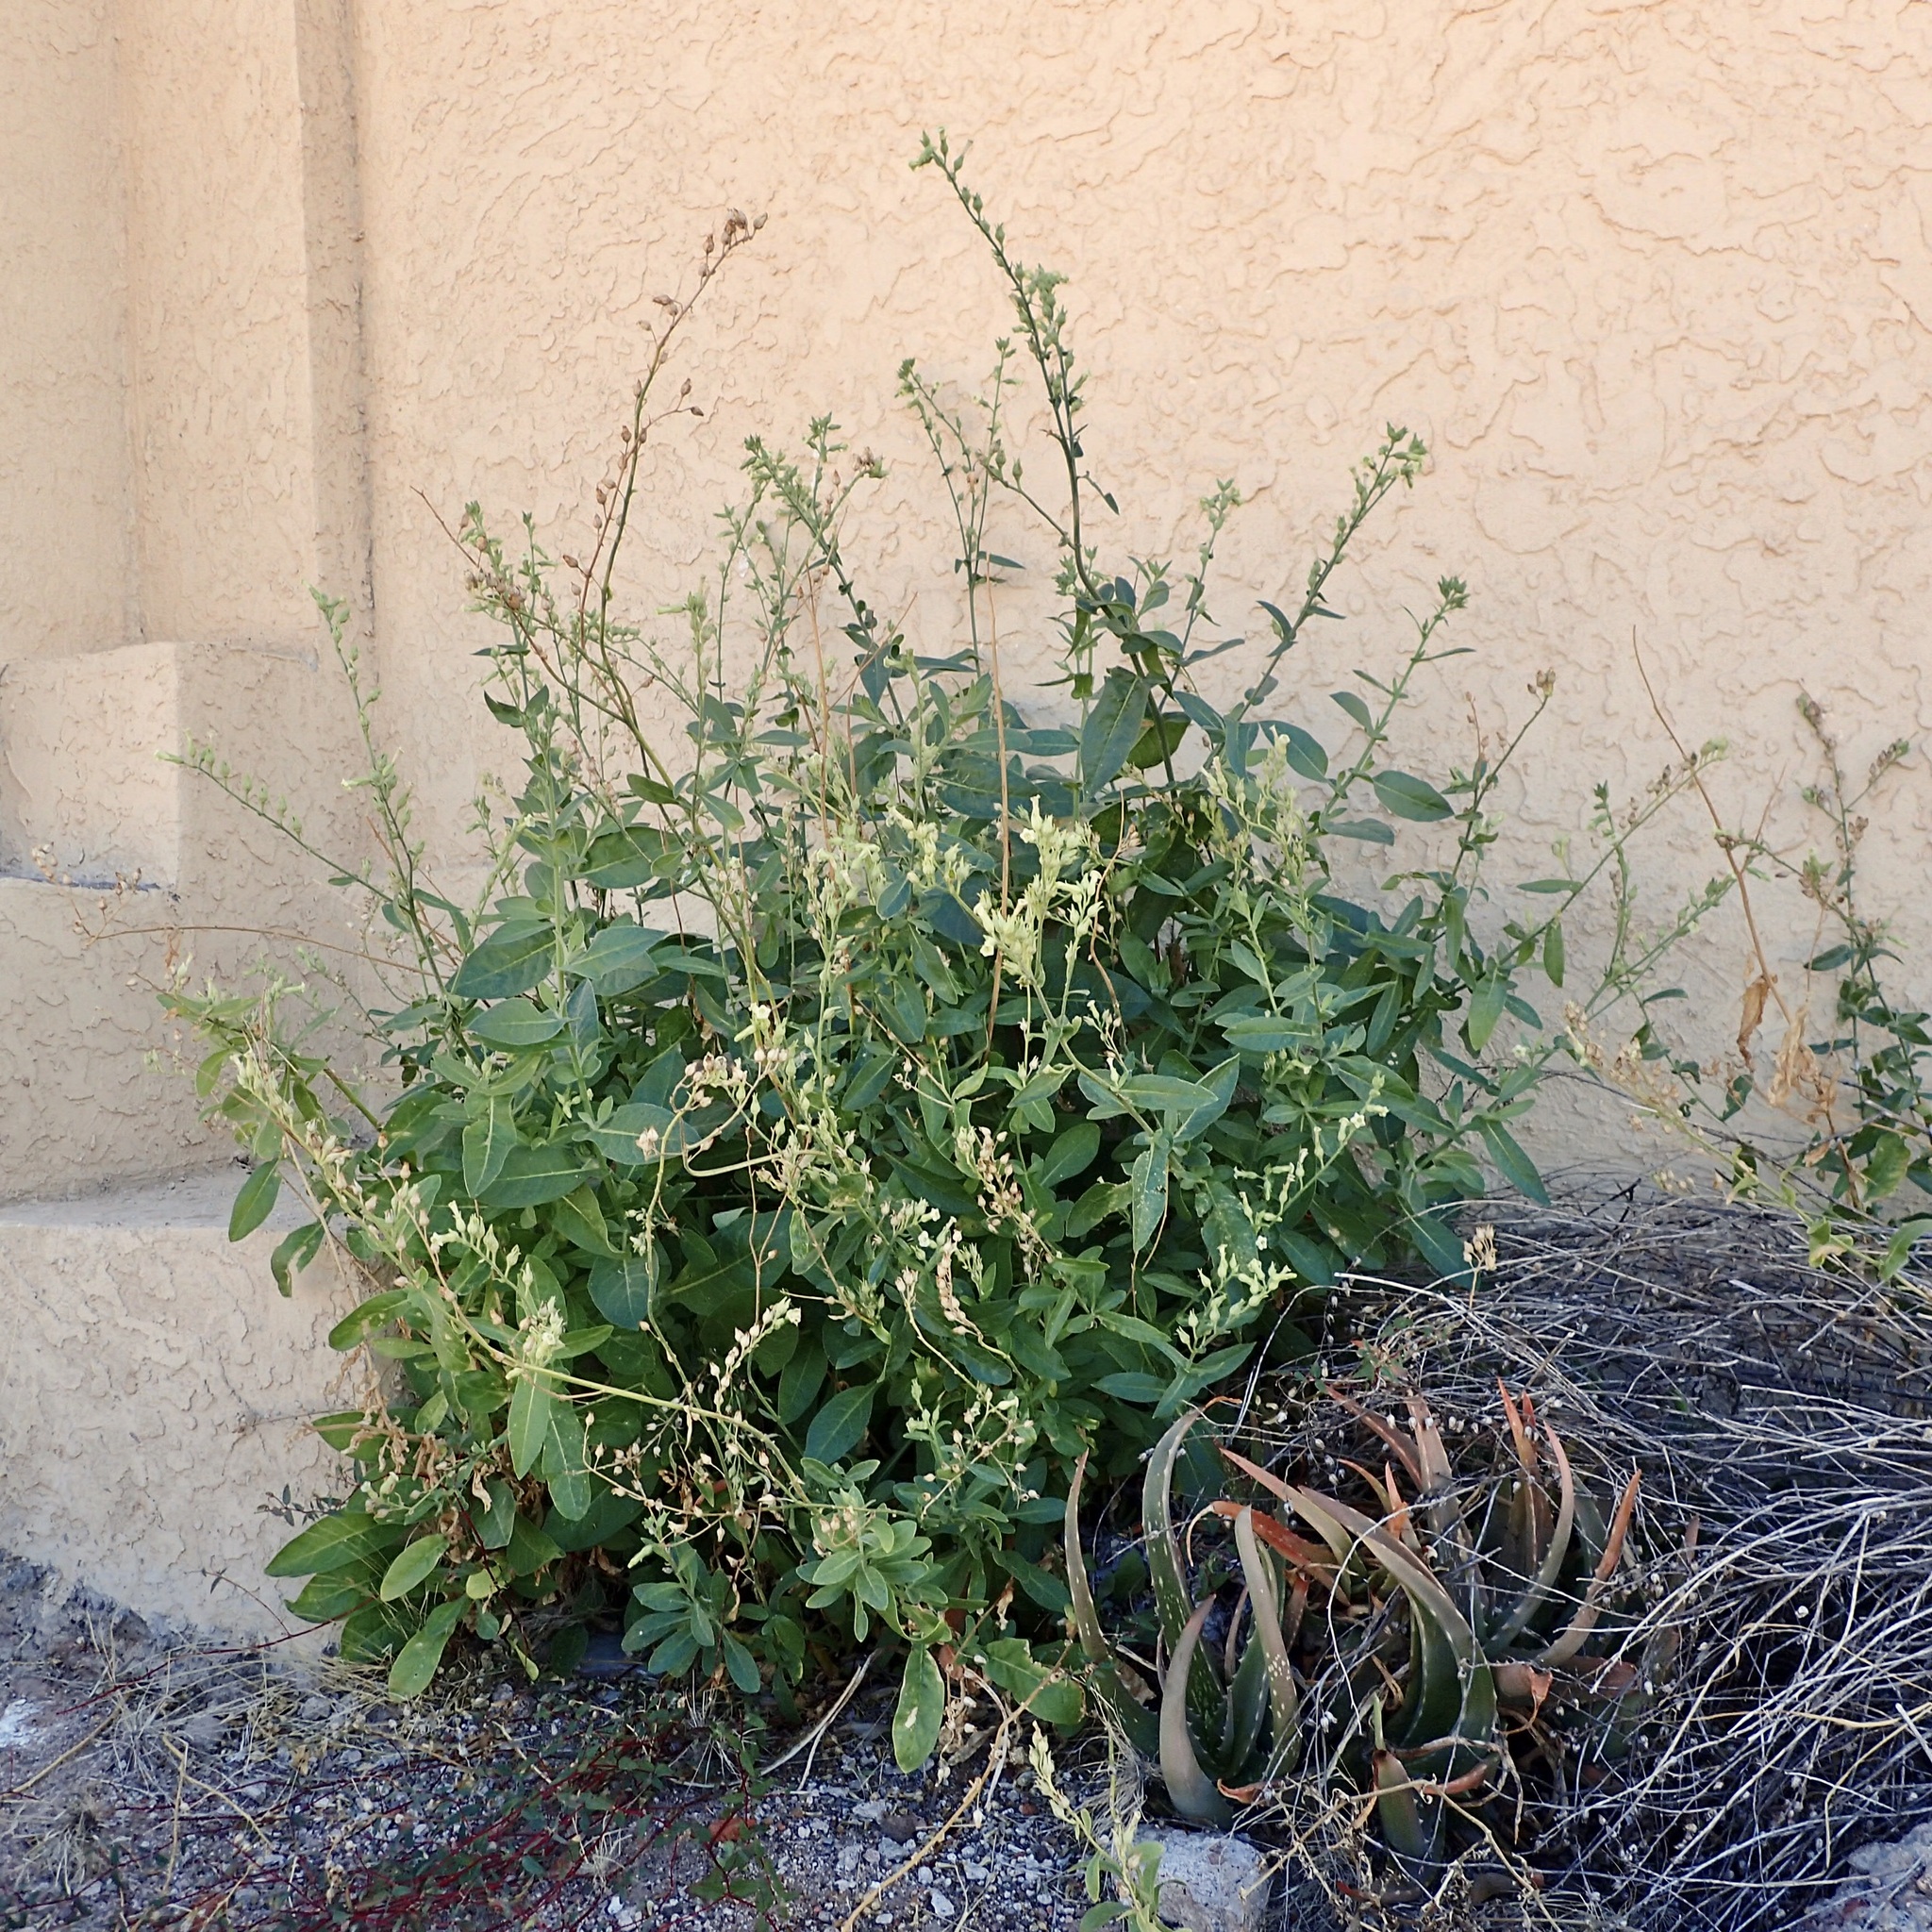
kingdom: Plantae
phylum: Tracheophyta
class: Magnoliopsida
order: Solanales
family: Solanaceae
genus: Nicotiana
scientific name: Nicotiana obtusifolia
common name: Desert tobacco
